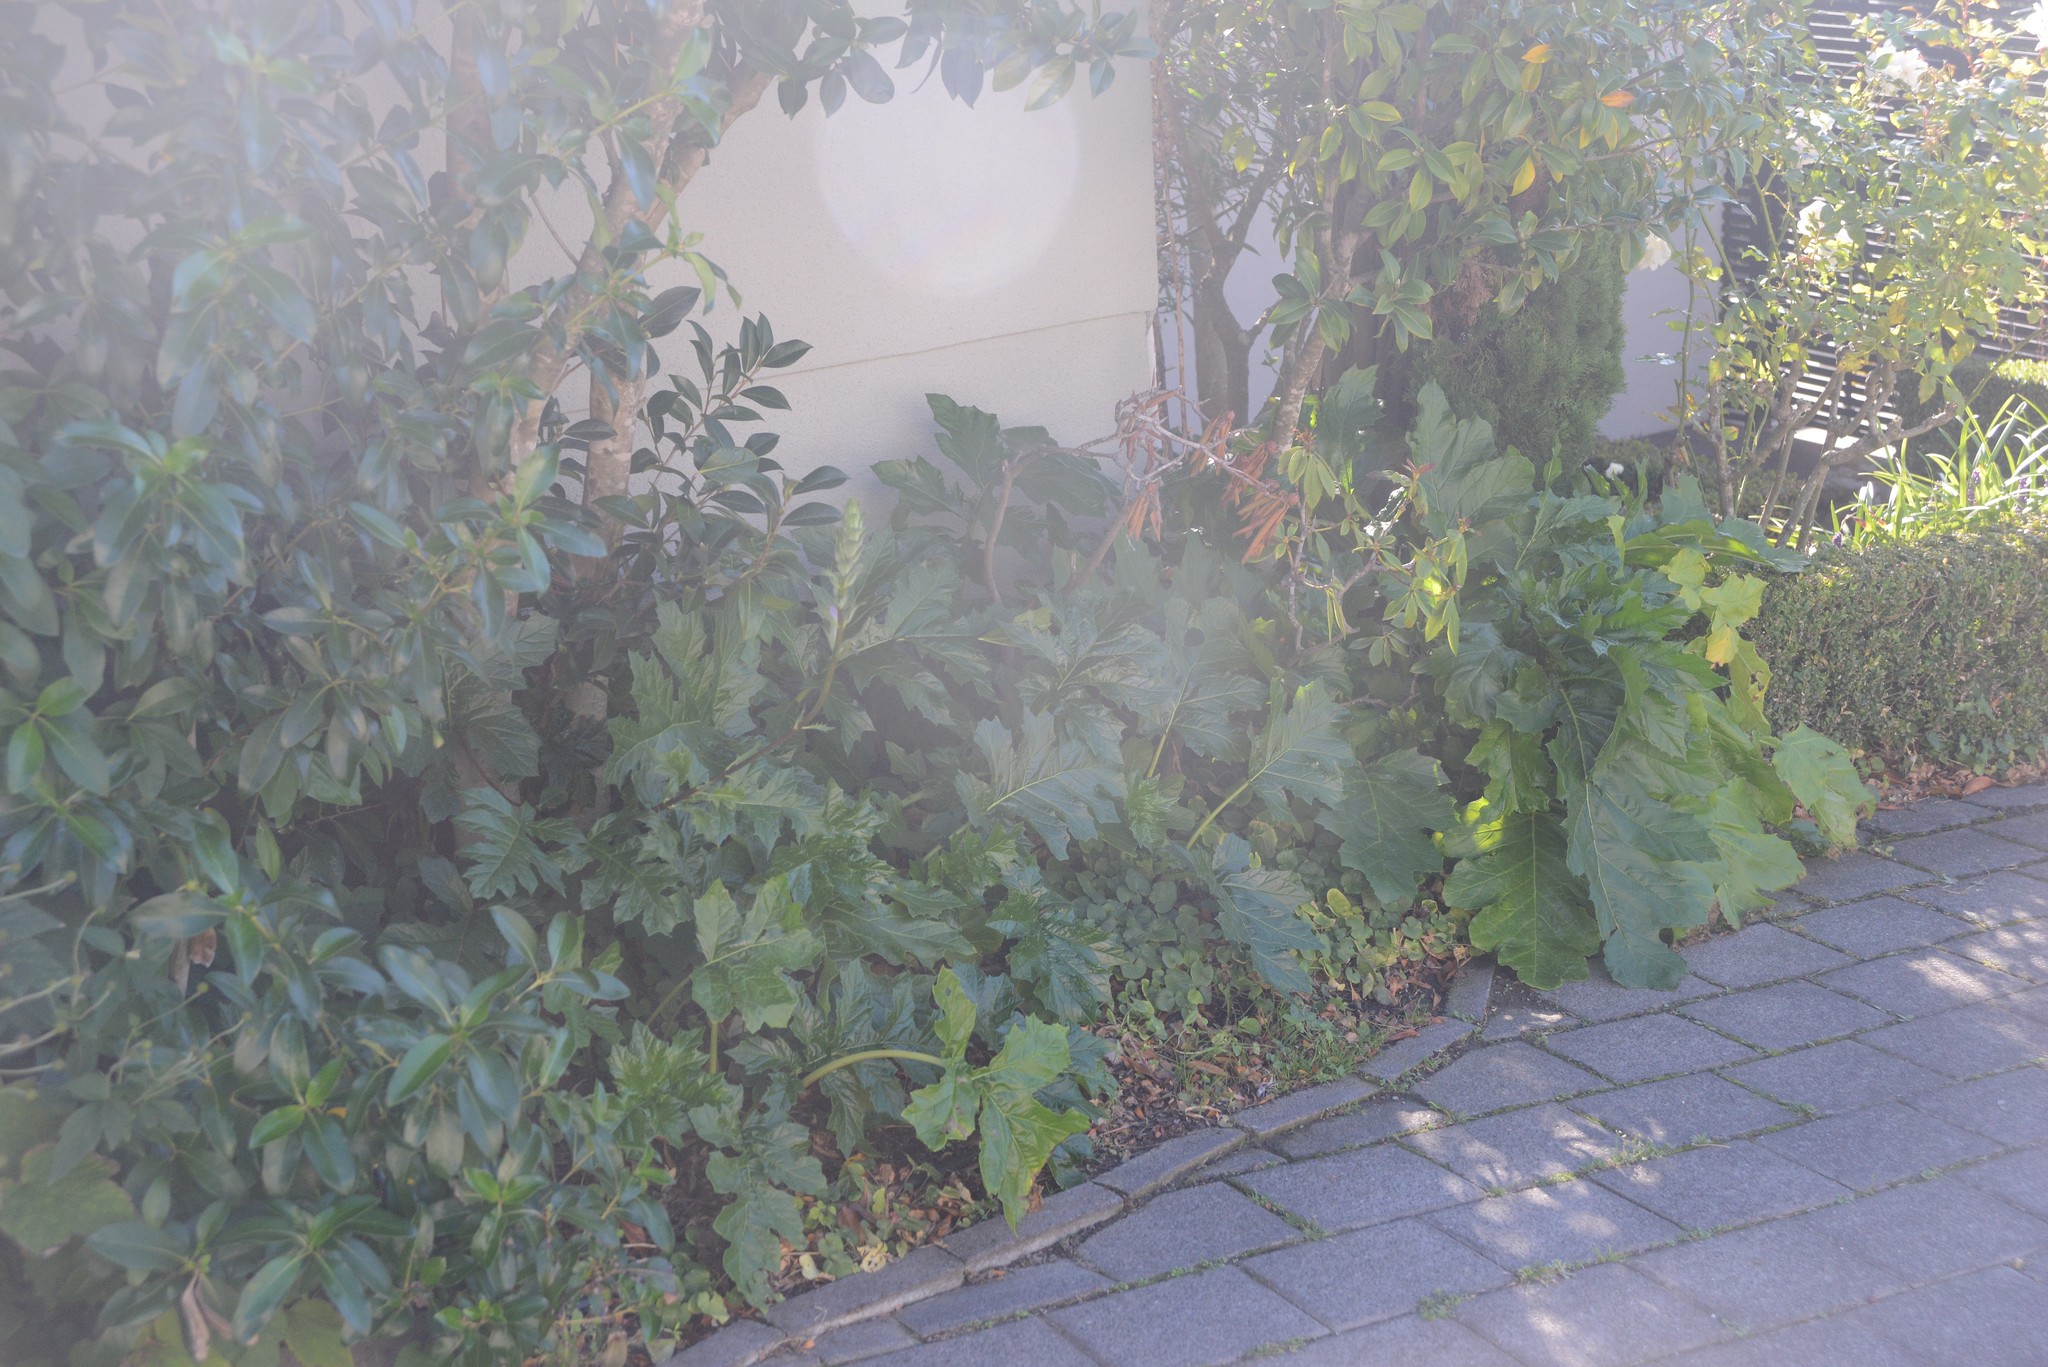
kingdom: Plantae
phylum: Tracheophyta
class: Magnoliopsida
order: Lamiales
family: Acanthaceae
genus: Acanthus
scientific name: Acanthus mollis
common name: Bear's-breech
